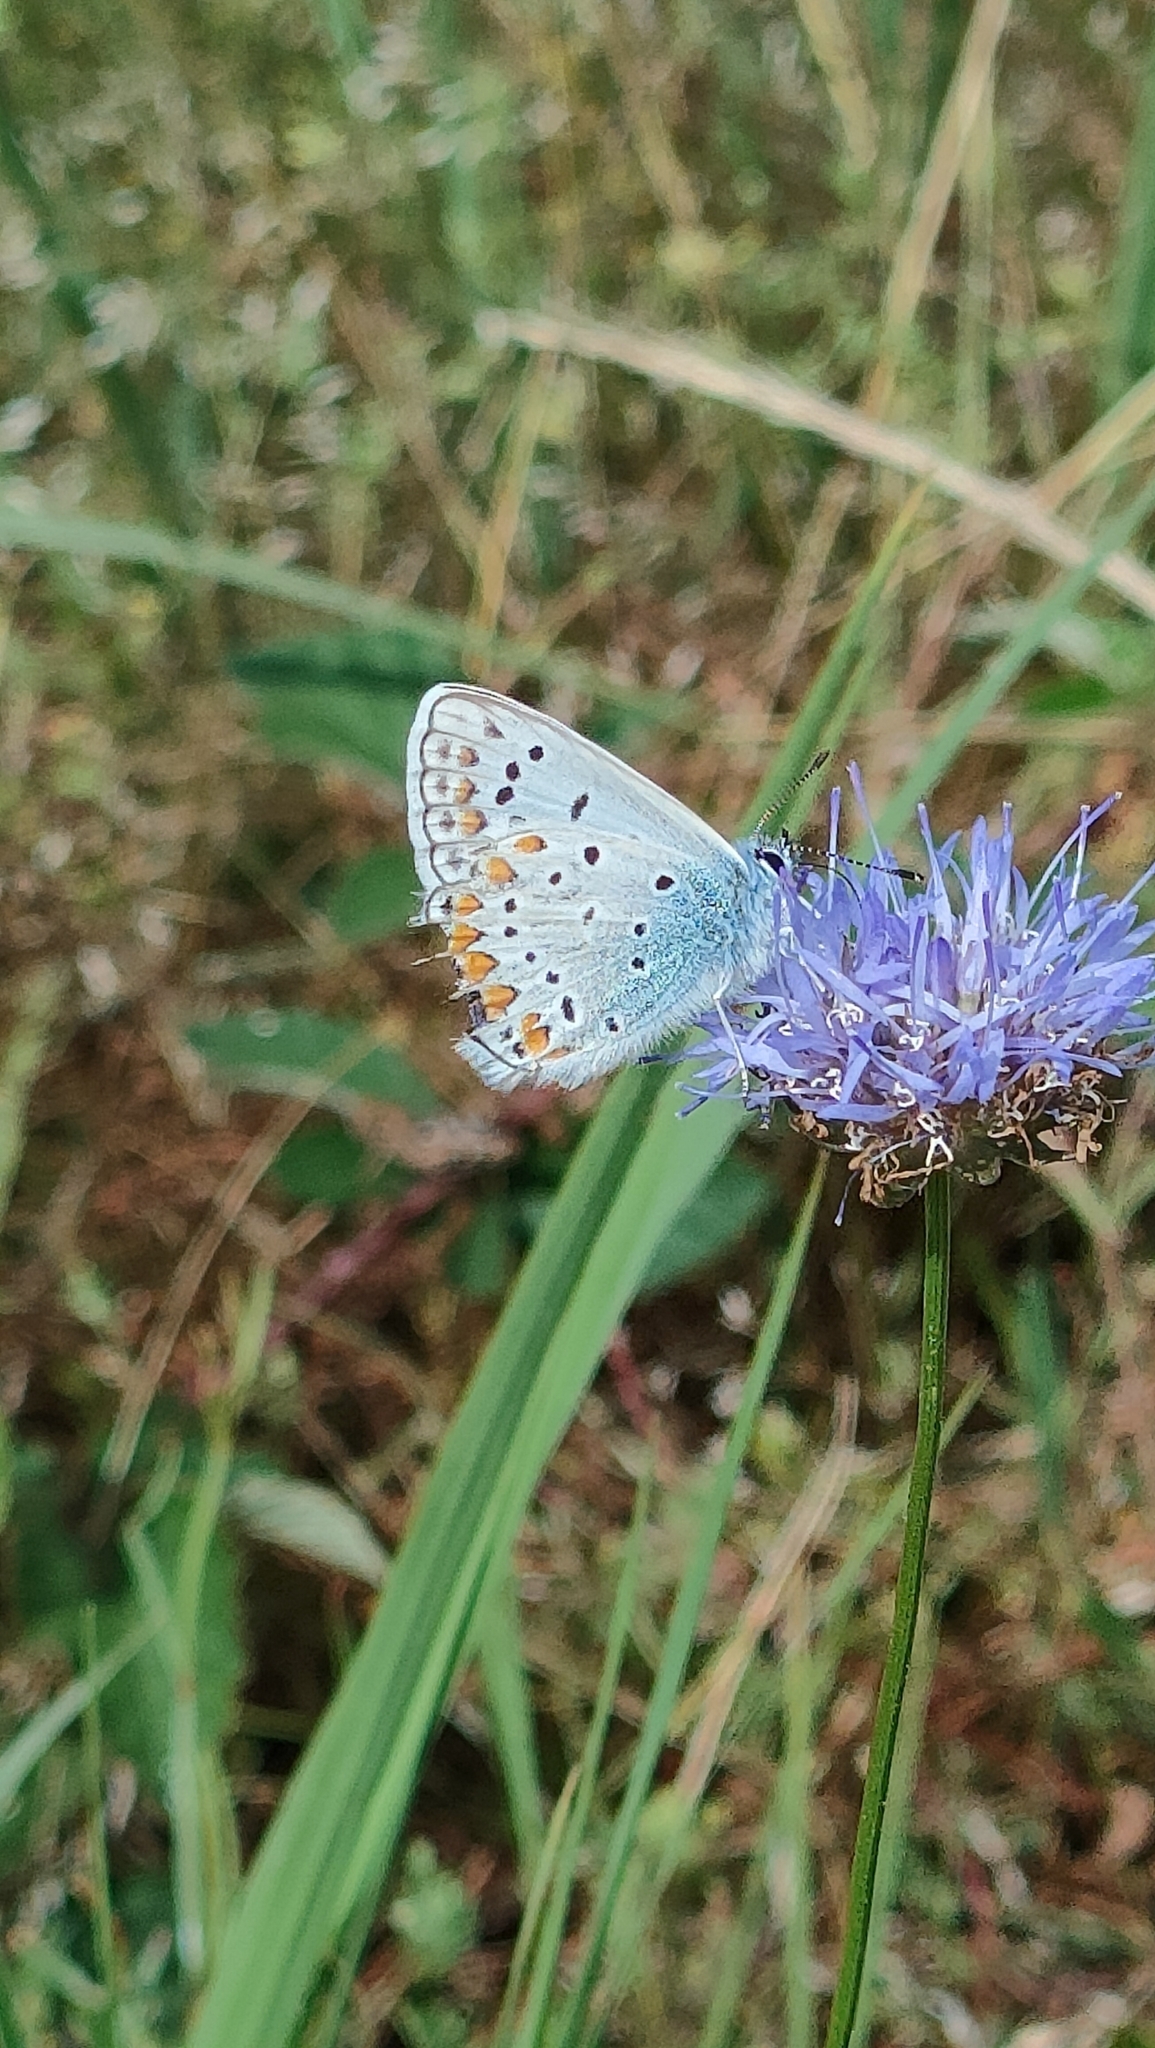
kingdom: Animalia
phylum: Arthropoda
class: Insecta
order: Lepidoptera
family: Lycaenidae
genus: Polyommatus
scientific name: Polyommatus icarus
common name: Common blue
